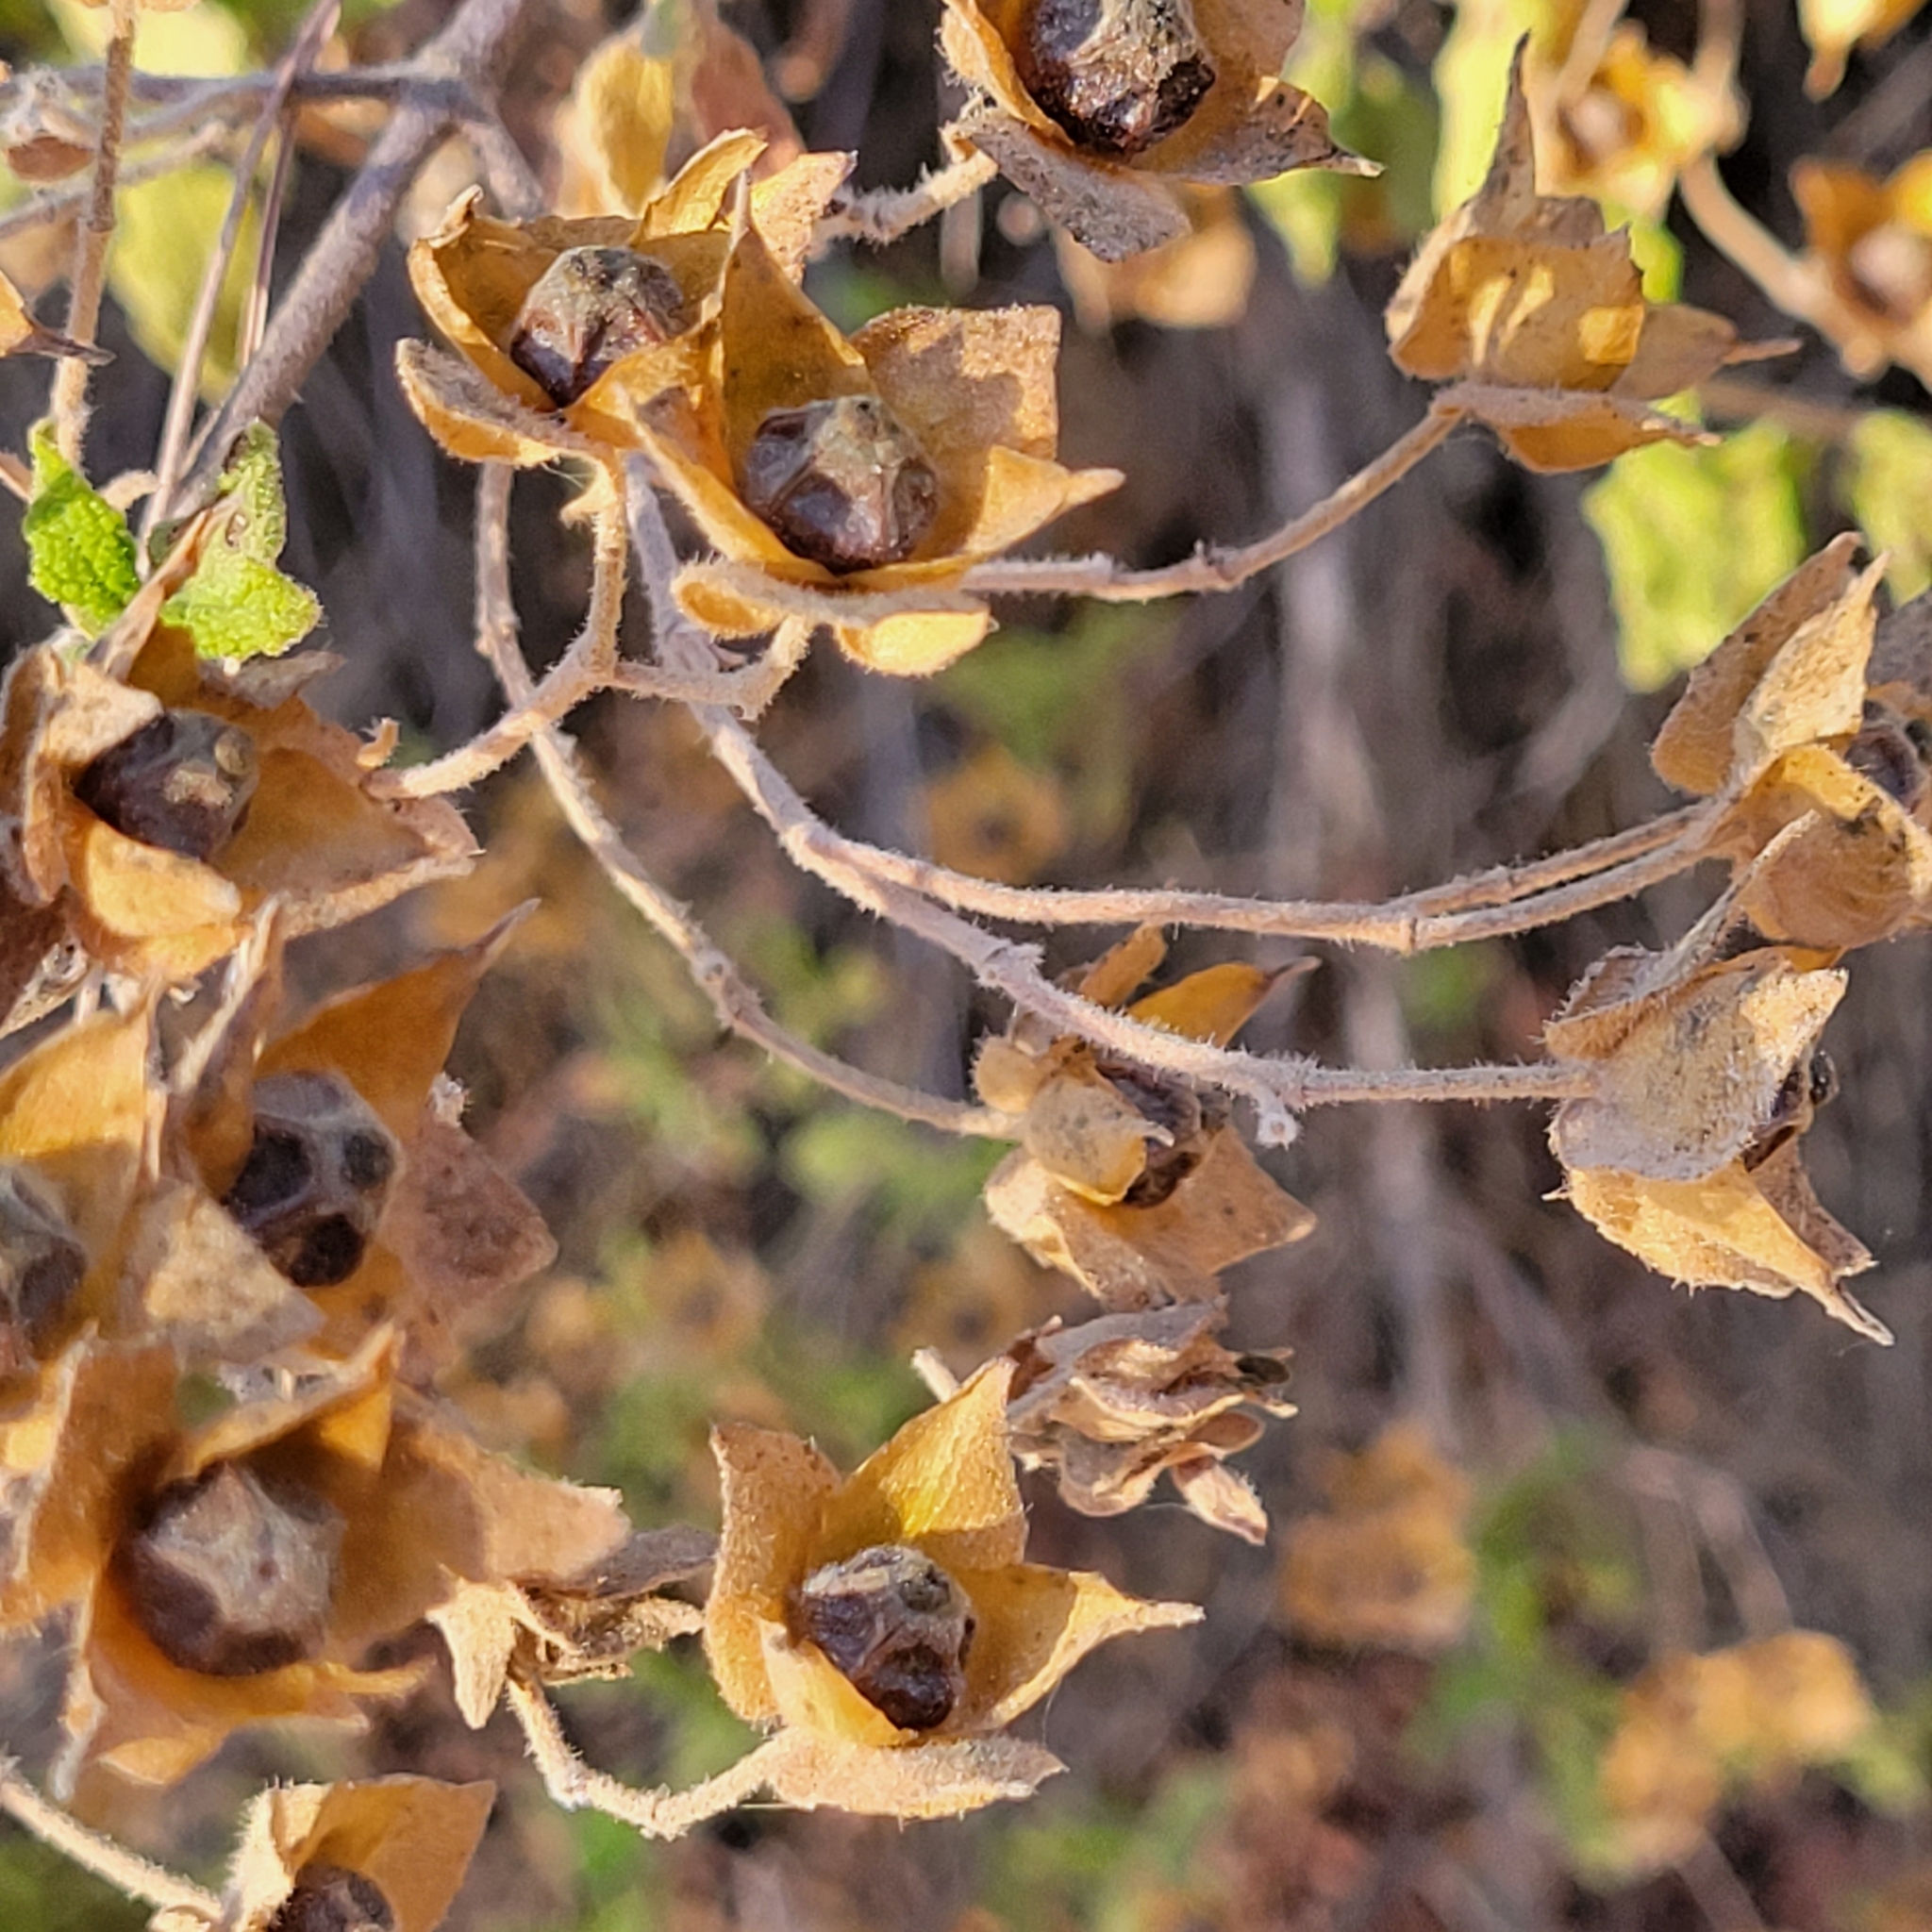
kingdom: Plantae
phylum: Tracheophyta
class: Magnoliopsida
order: Malvales
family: Cistaceae
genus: Cistus
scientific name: Cistus salviifolius
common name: Salvia cistus
